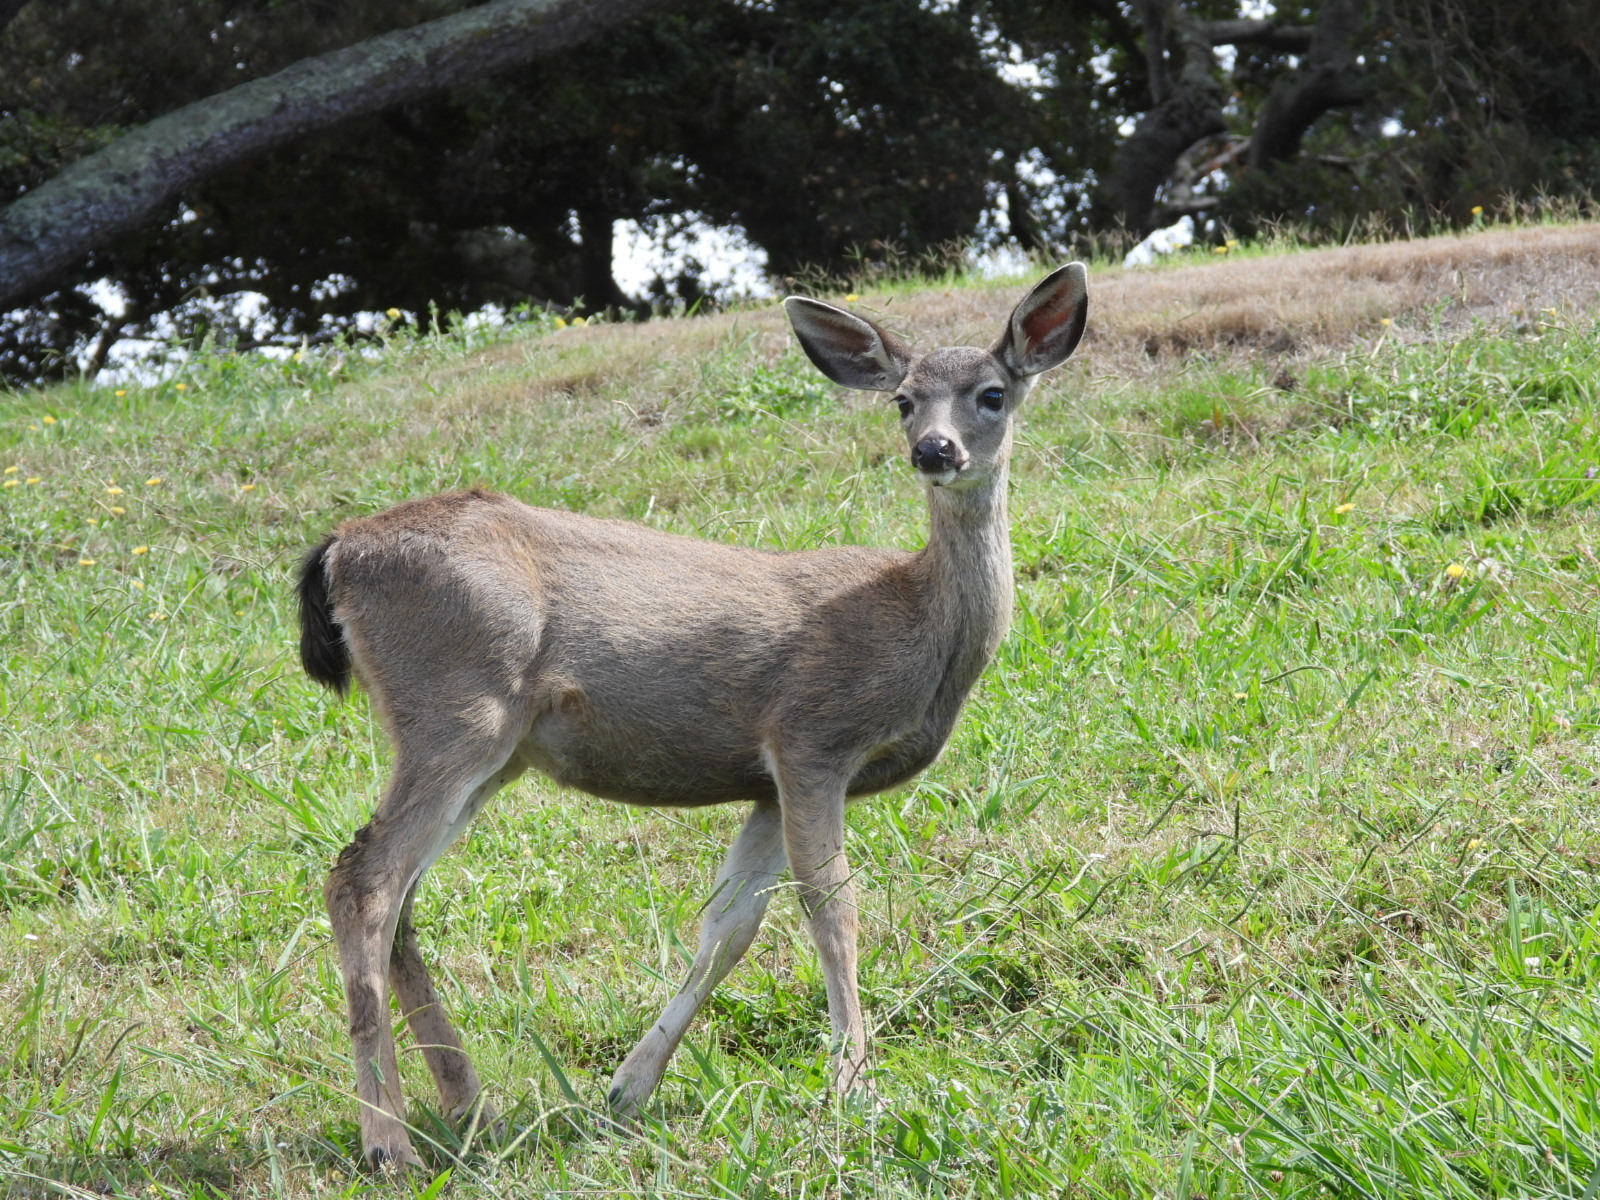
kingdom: Animalia
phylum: Chordata
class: Mammalia
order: Artiodactyla
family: Cervidae
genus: Odocoileus
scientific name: Odocoileus hemionus
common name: Mule deer
